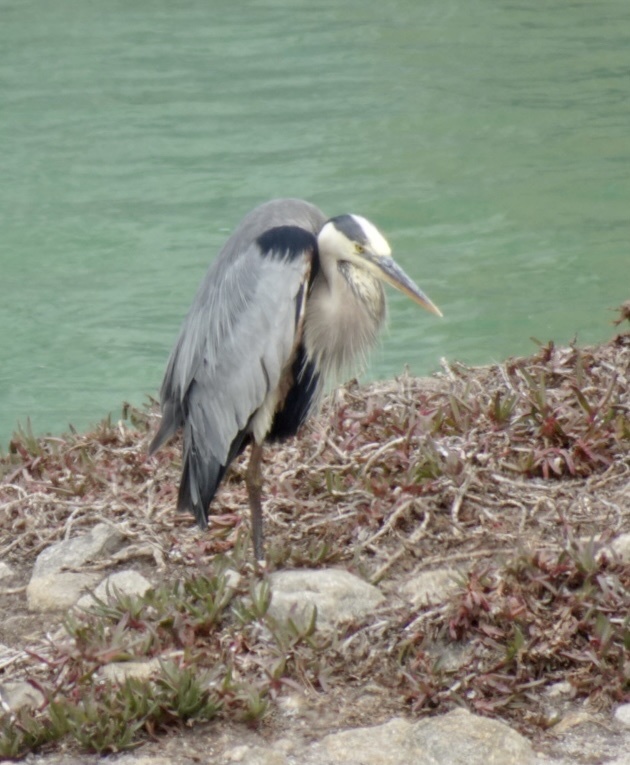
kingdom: Animalia
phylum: Chordata
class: Aves
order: Pelecaniformes
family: Ardeidae
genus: Ardea
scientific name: Ardea herodias
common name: Great blue heron
